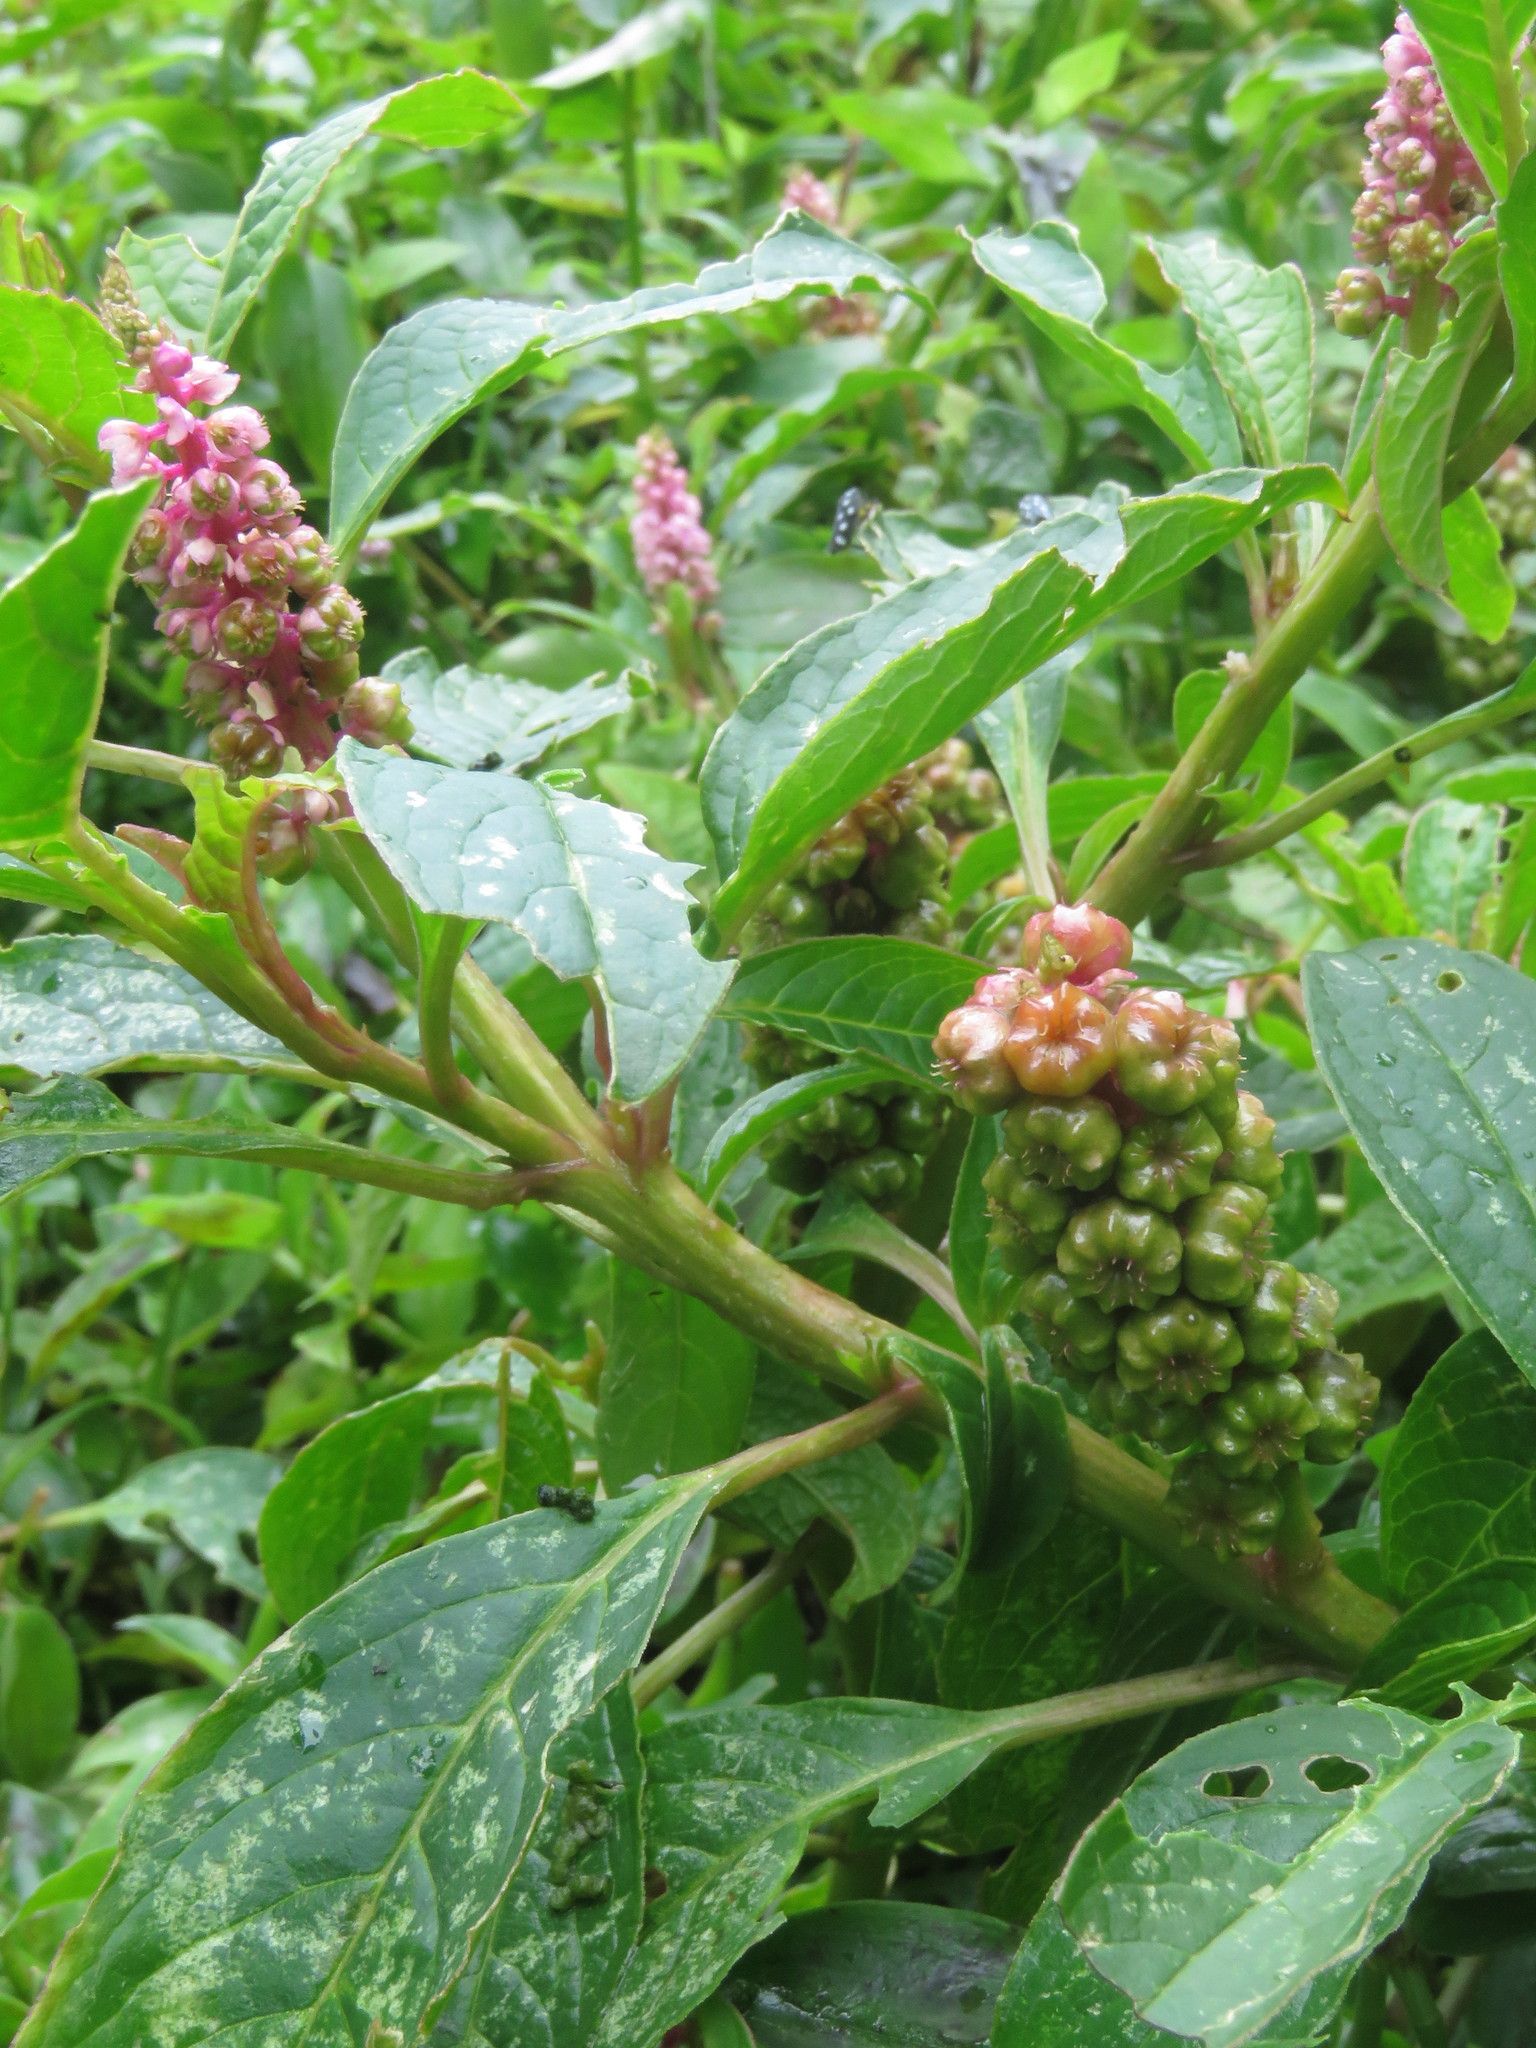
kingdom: Plantae
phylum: Tracheophyta
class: Magnoliopsida
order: Caryophyllales
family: Phytolaccaceae
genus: Phytolacca
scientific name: Phytolacca bogotensis
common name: Southern pokeweed
